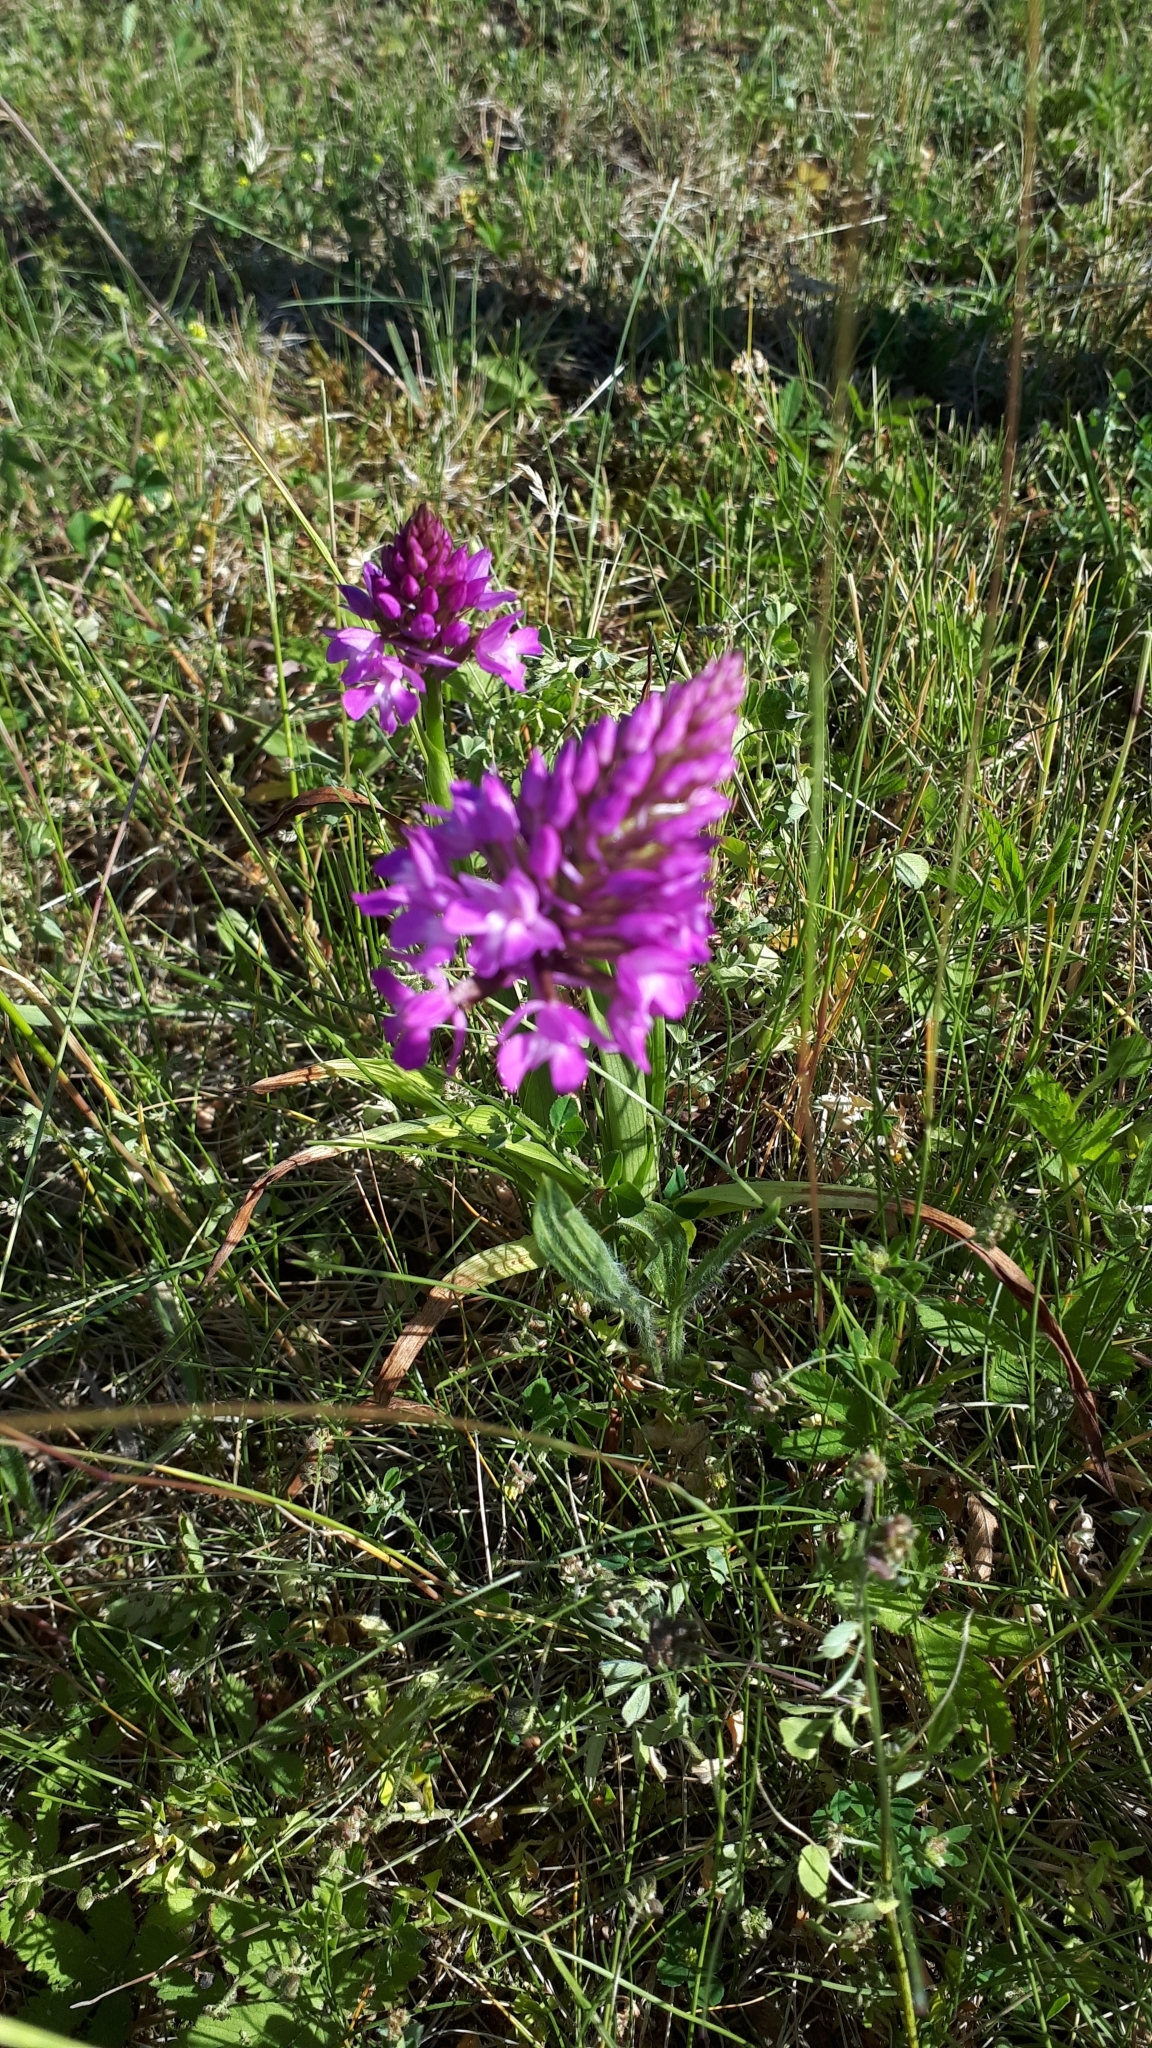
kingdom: Plantae
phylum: Tracheophyta
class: Liliopsida
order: Asparagales
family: Orchidaceae
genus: Anacamptis
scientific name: Anacamptis pyramidalis
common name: Pyramidal orchid
